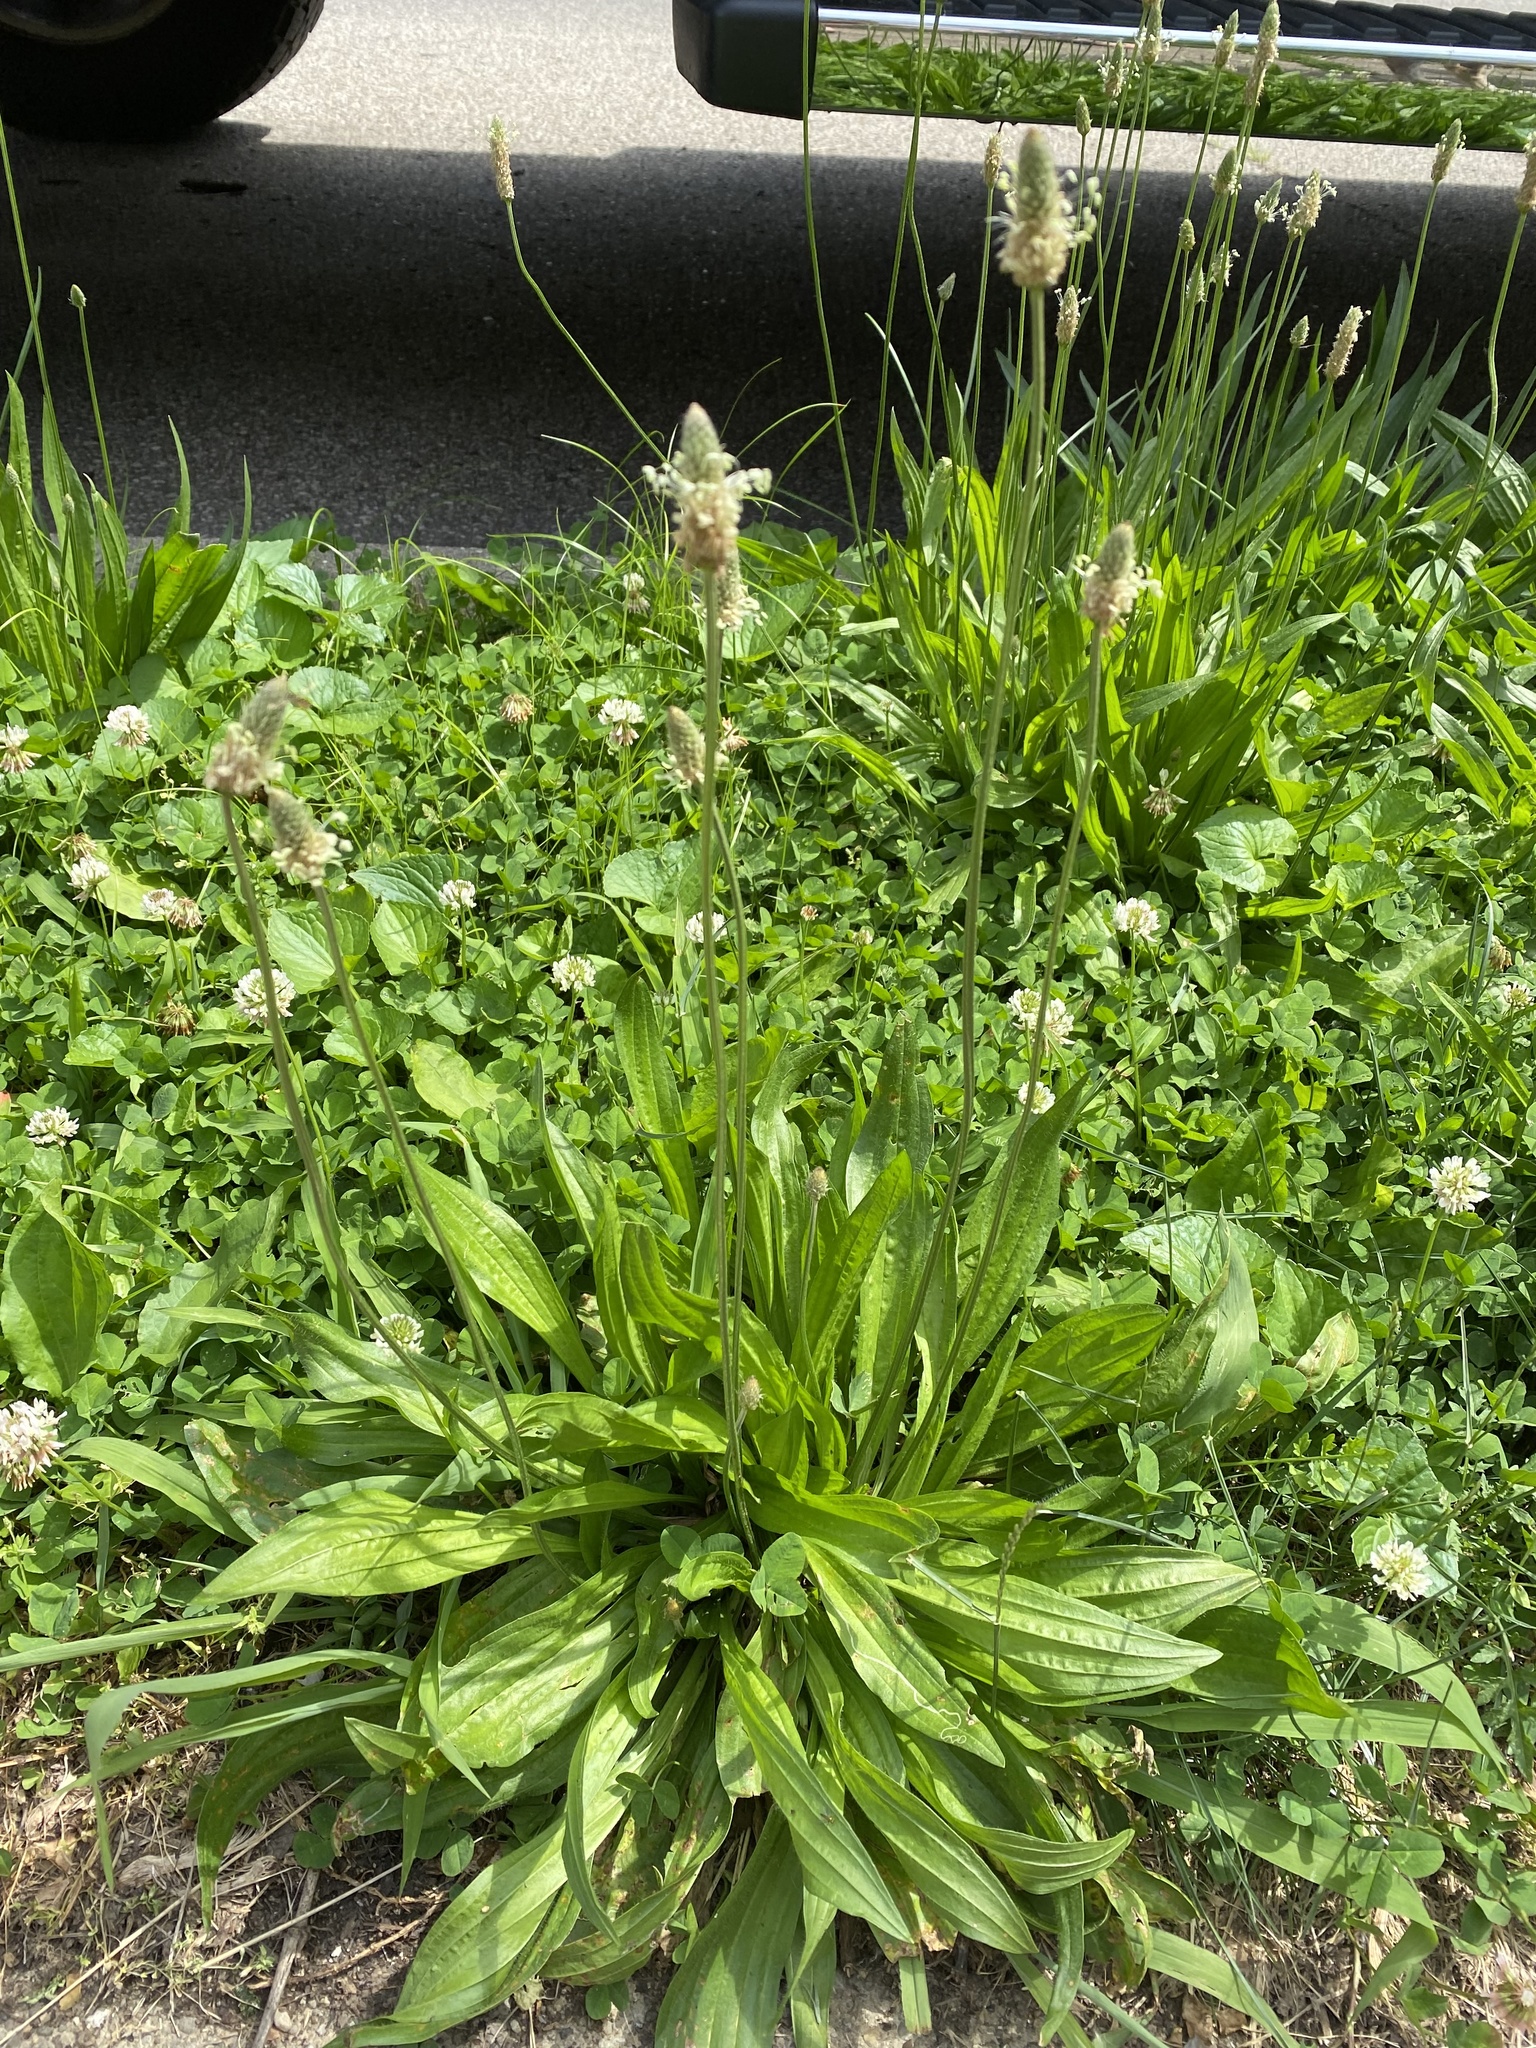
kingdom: Plantae
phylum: Tracheophyta
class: Magnoliopsida
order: Lamiales
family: Plantaginaceae
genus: Plantago
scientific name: Plantago lanceolata
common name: Ribwort plantain
